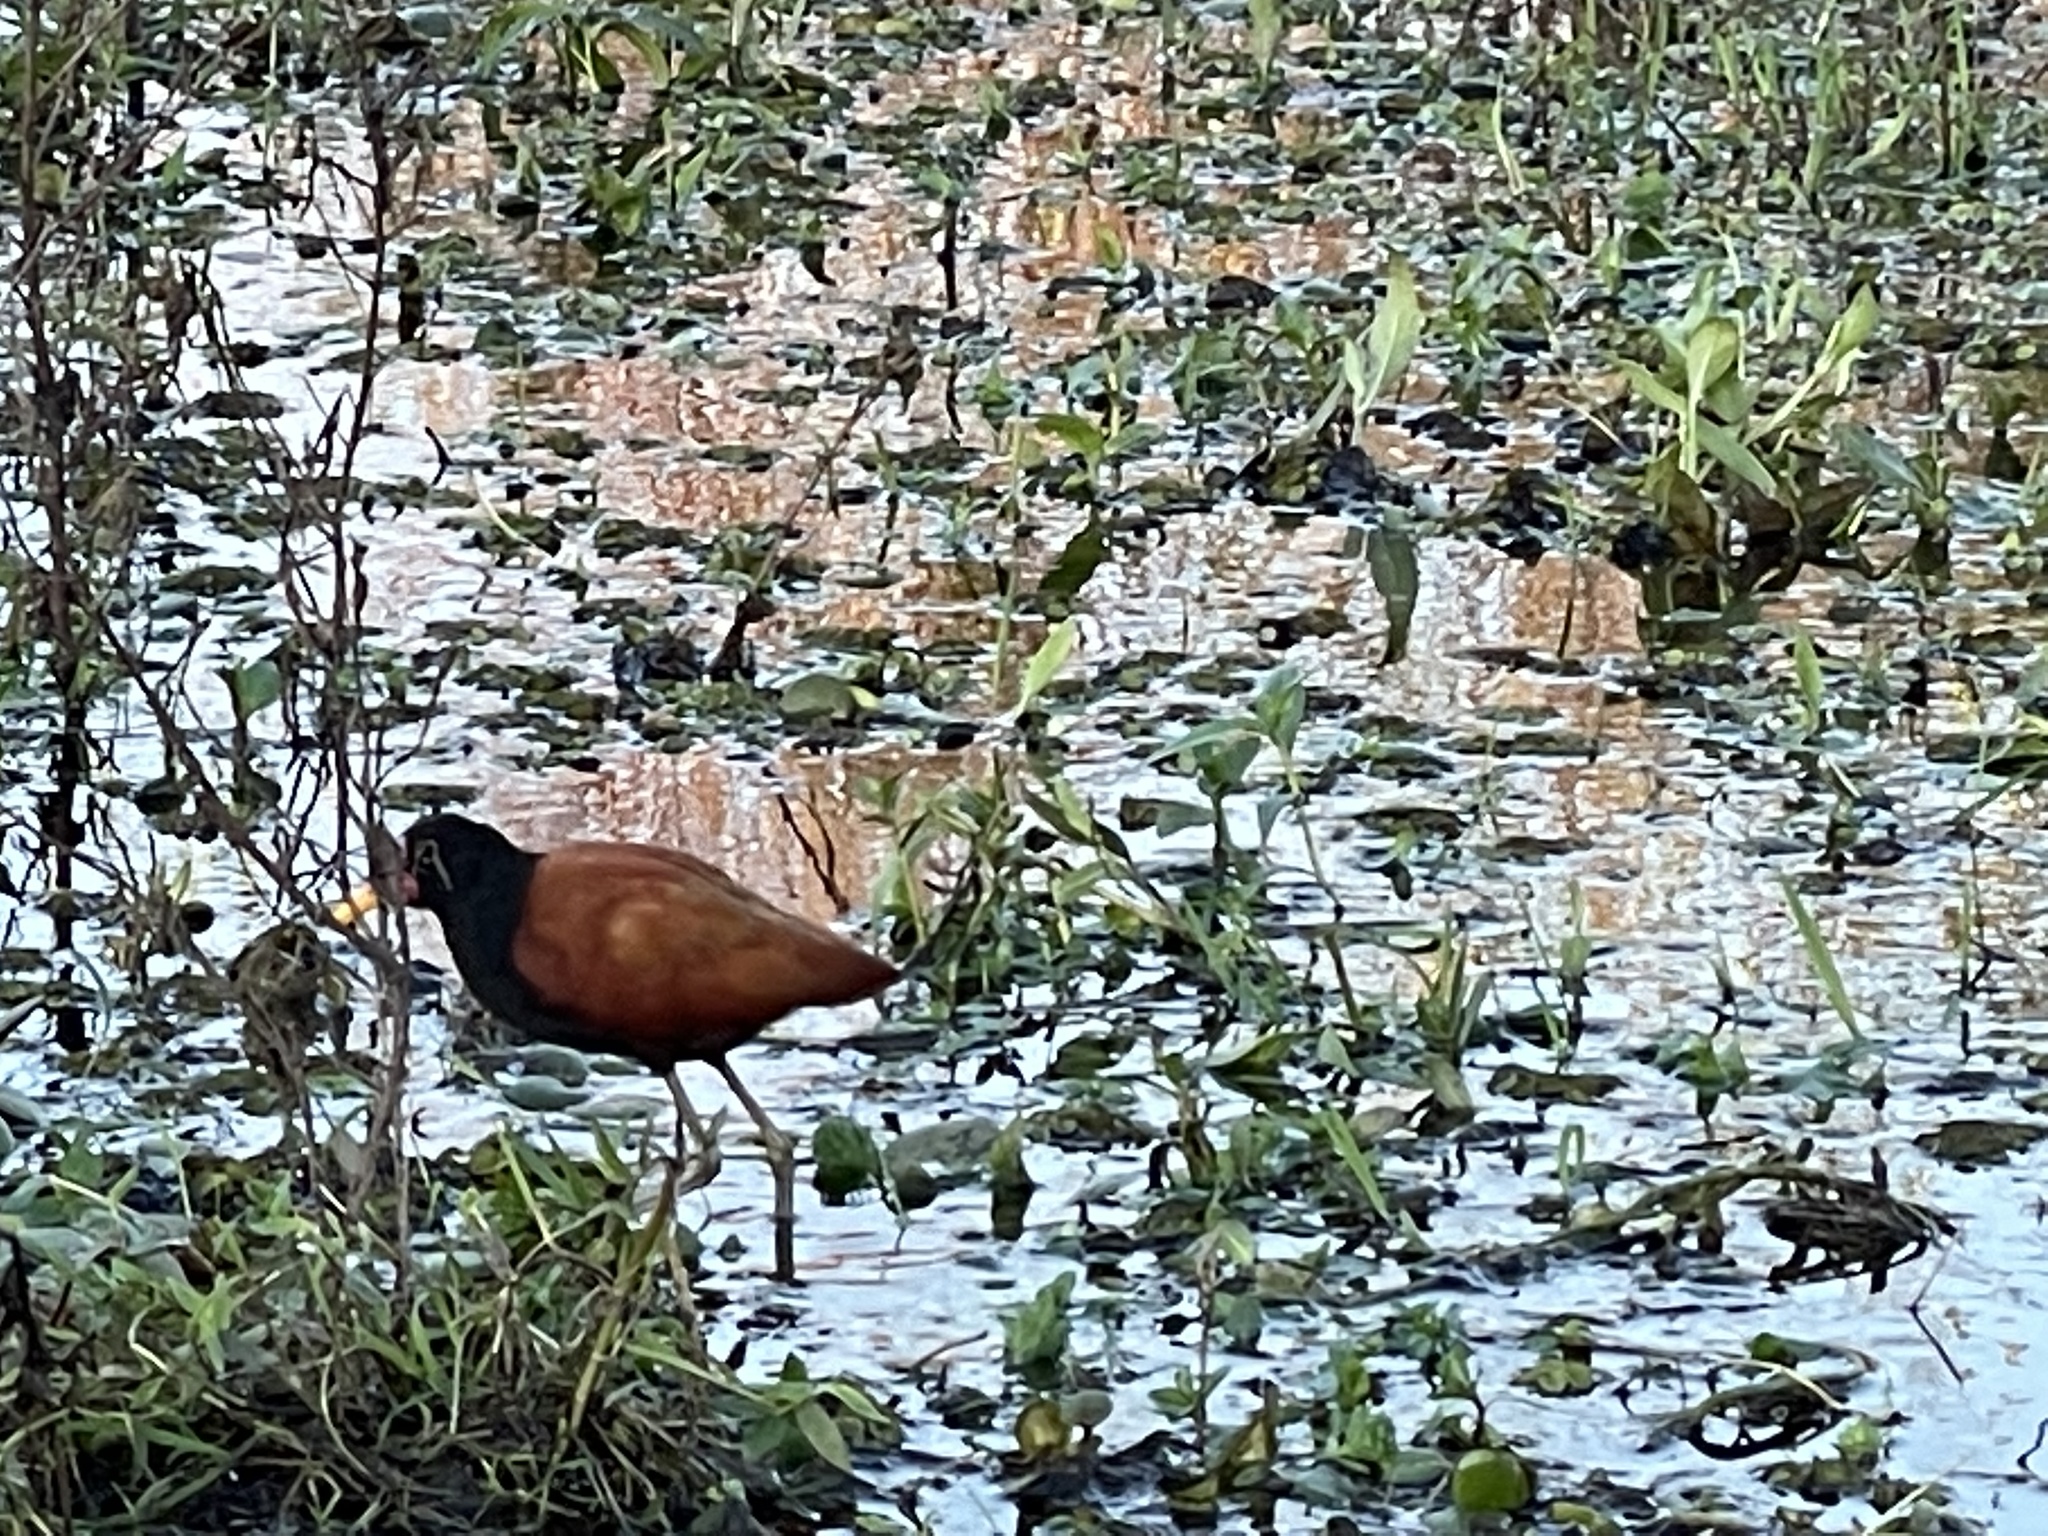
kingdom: Animalia
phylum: Chordata
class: Aves
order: Charadriiformes
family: Jacanidae
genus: Jacana
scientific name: Jacana jacana
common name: Wattled jacana
